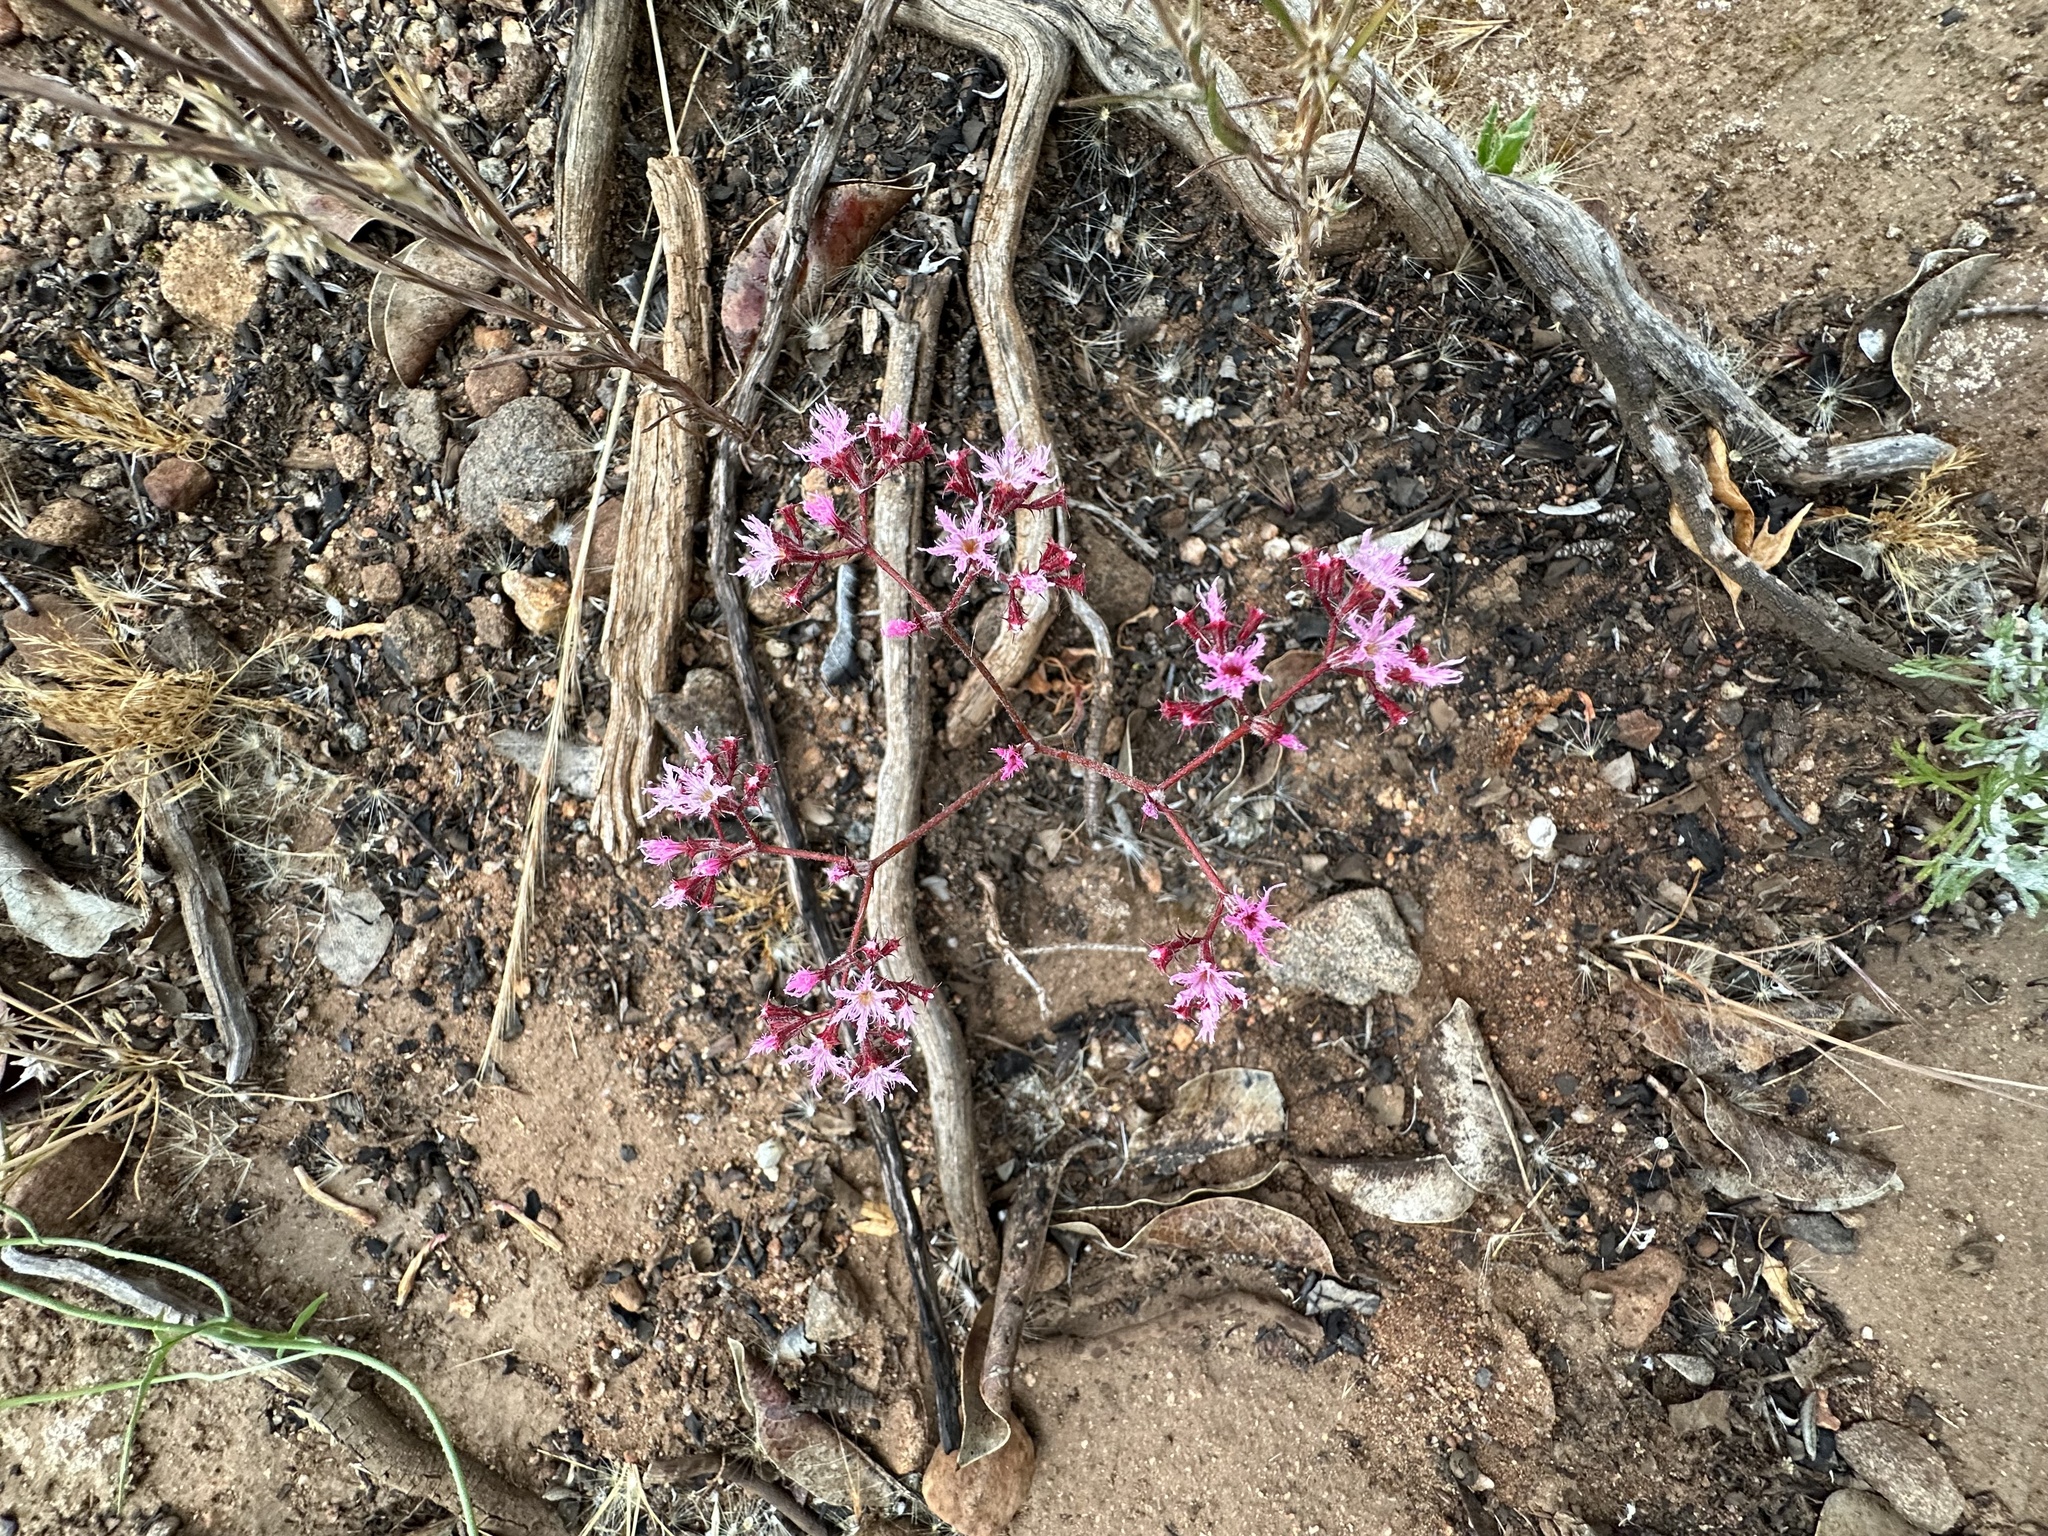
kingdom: Plantae
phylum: Tracheophyta
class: Magnoliopsida
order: Caryophyllales
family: Polygonaceae
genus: Chorizanthe
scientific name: Chorizanthe fimbriata
